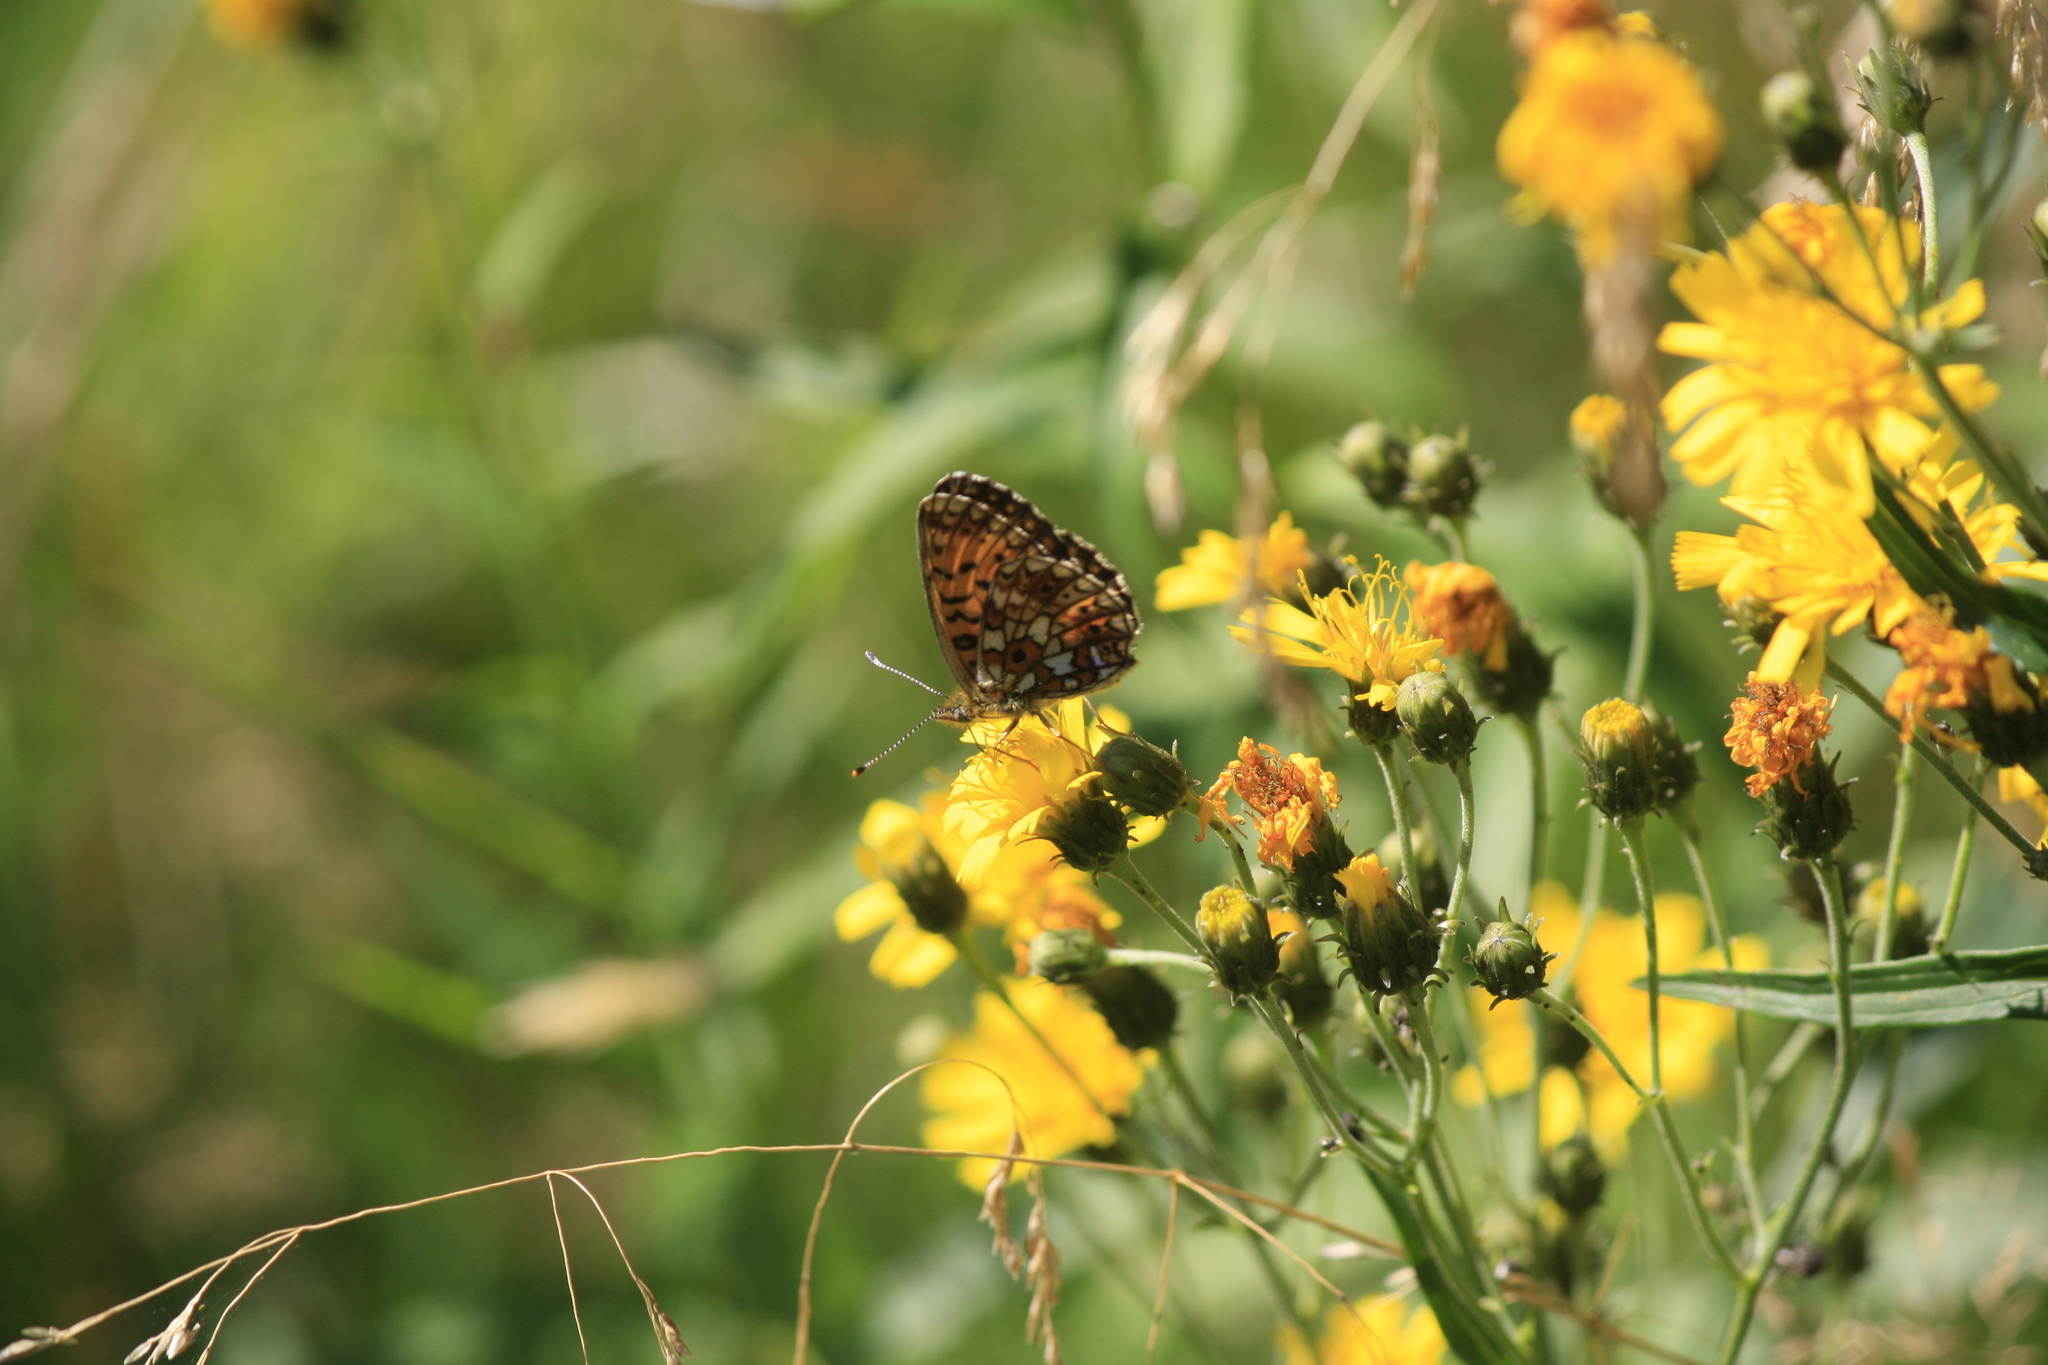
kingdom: Animalia
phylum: Arthropoda
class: Insecta
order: Lepidoptera
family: Nymphalidae
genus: Boloria
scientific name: Boloria selene
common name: Small pearl-bordered fritillary
